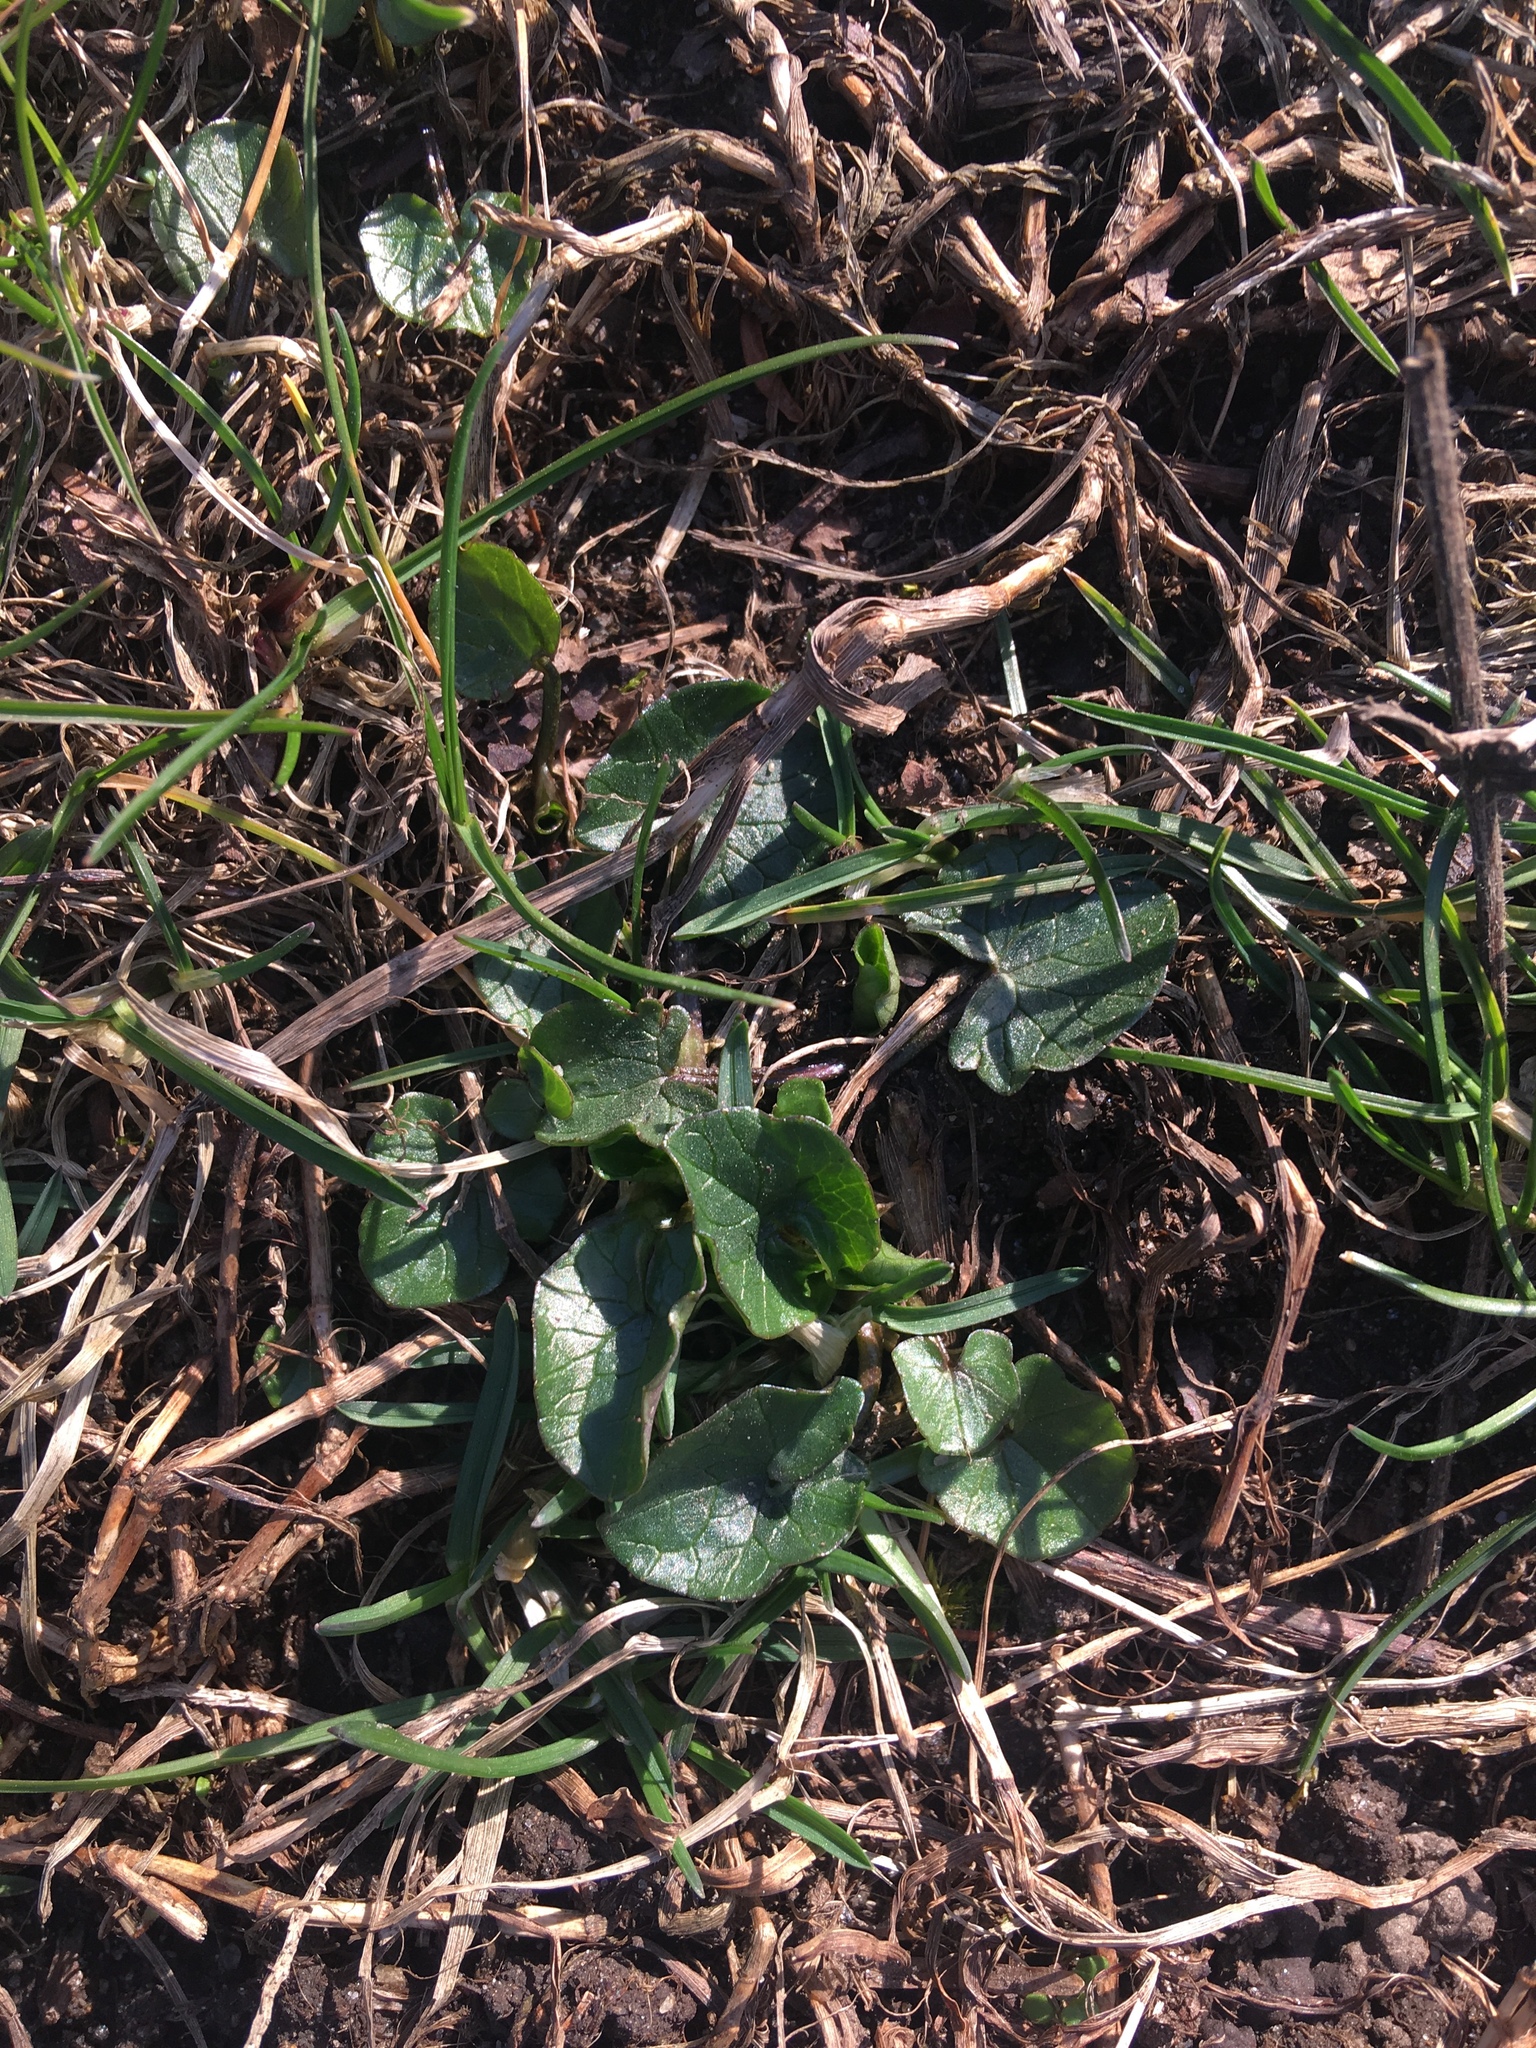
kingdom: Plantae
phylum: Tracheophyta
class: Magnoliopsida
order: Ranunculales
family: Ranunculaceae
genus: Ficaria
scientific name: Ficaria verna
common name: Lesser celandine
